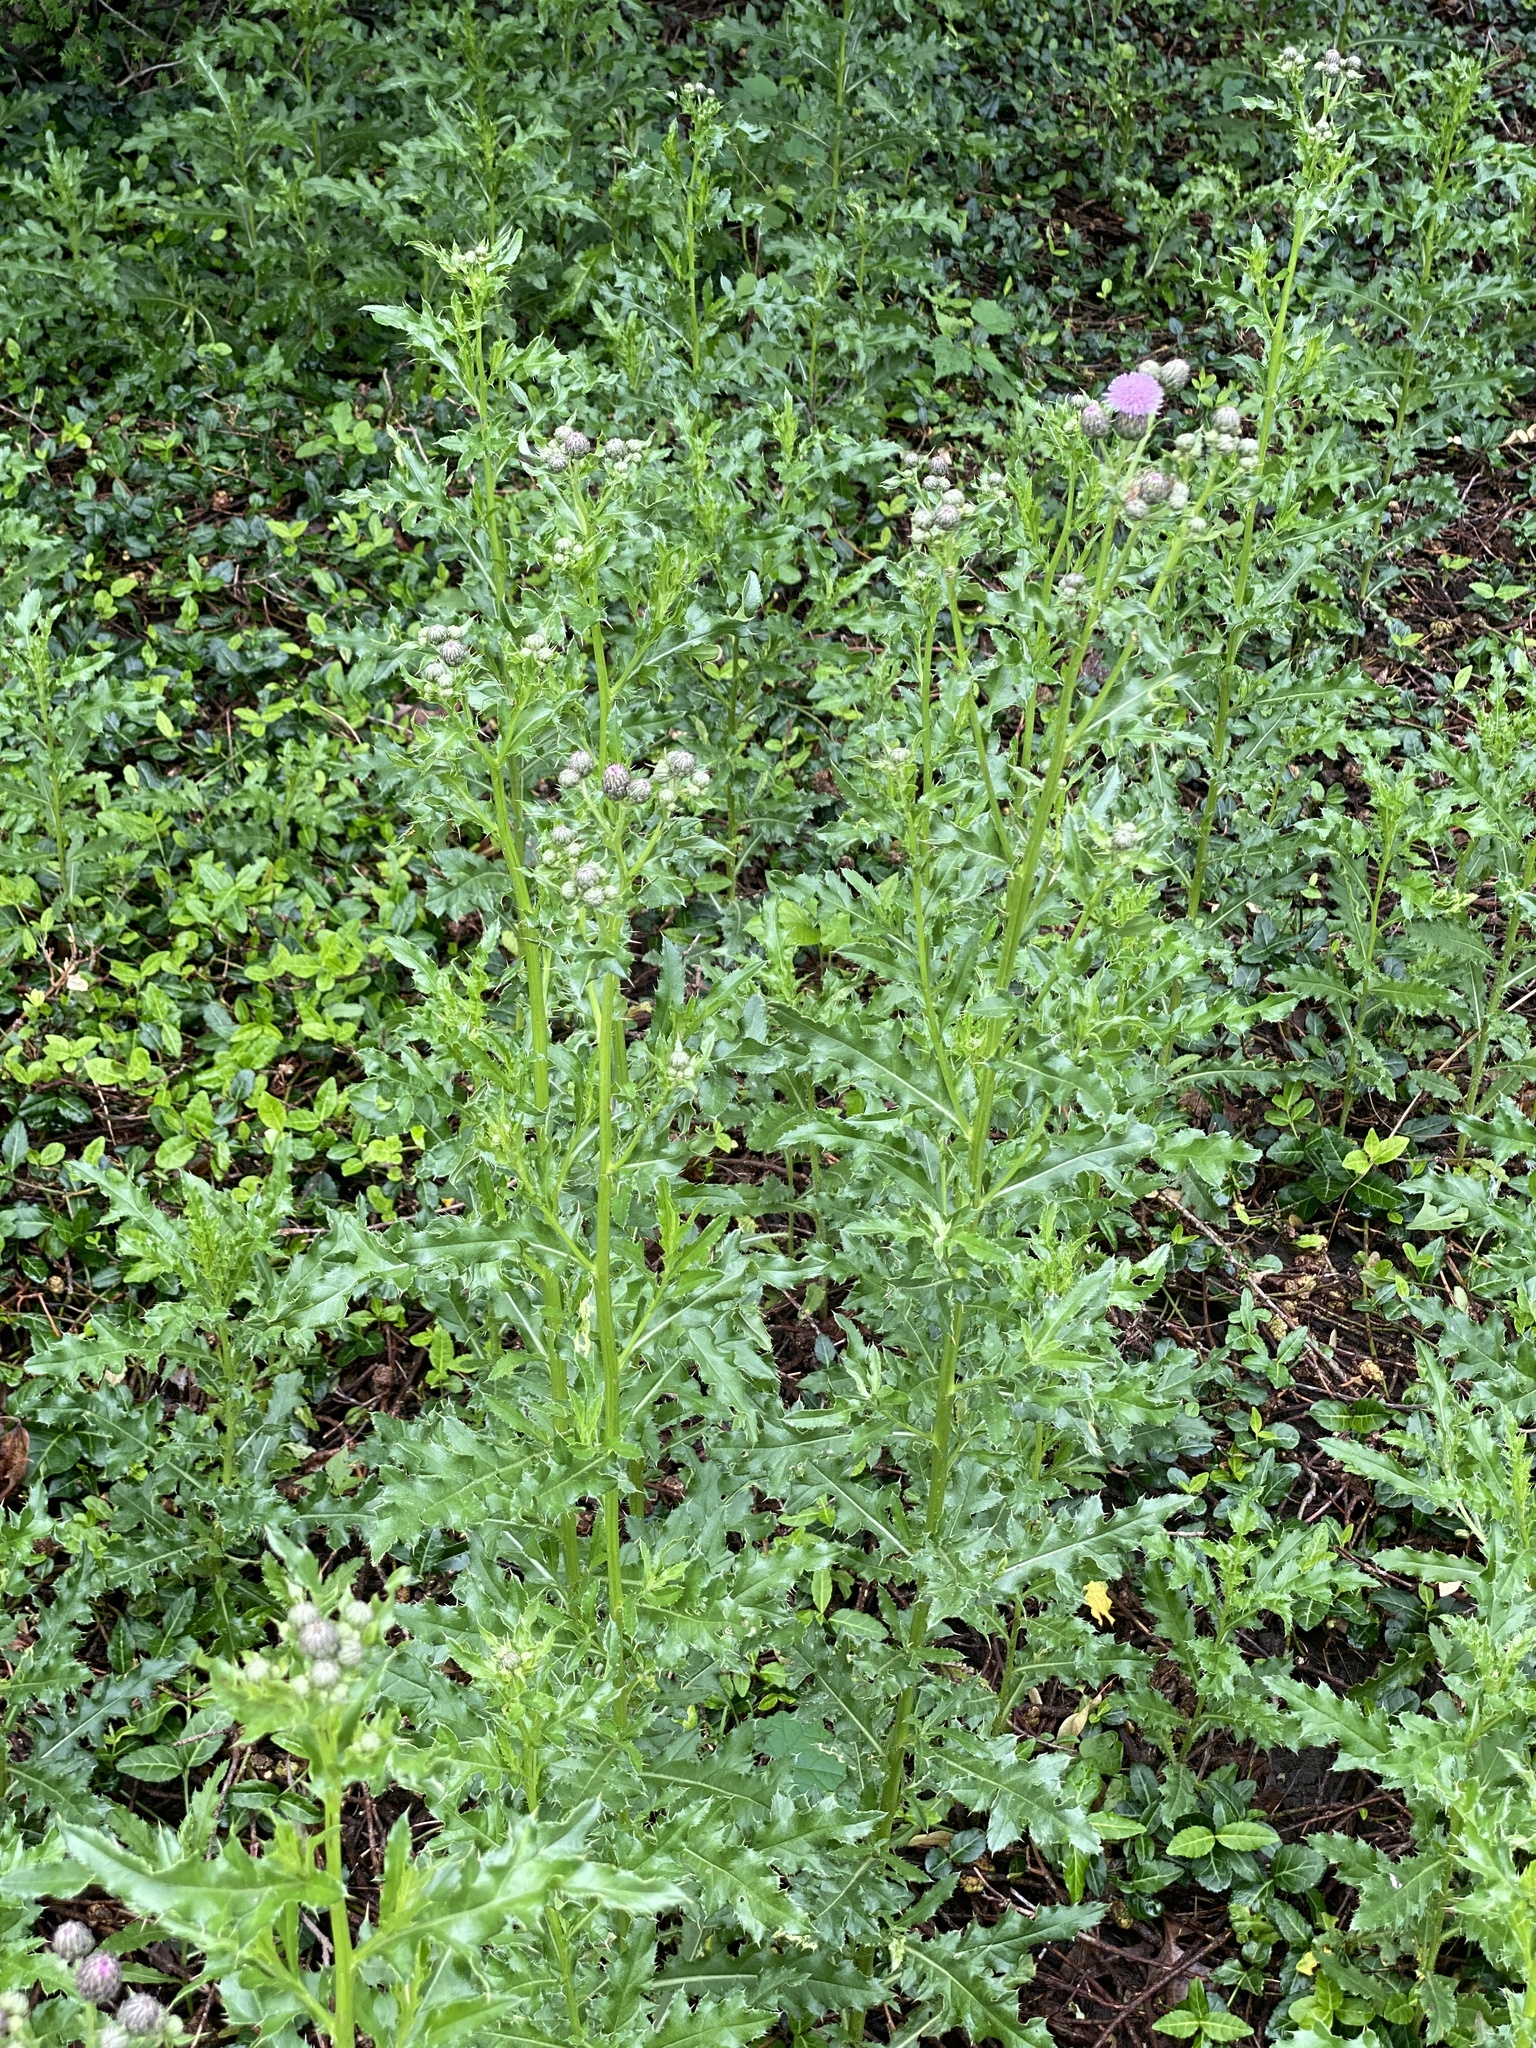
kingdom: Plantae
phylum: Tracheophyta
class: Magnoliopsida
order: Asterales
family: Asteraceae
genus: Cirsium
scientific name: Cirsium arvense
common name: Creeping thistle
